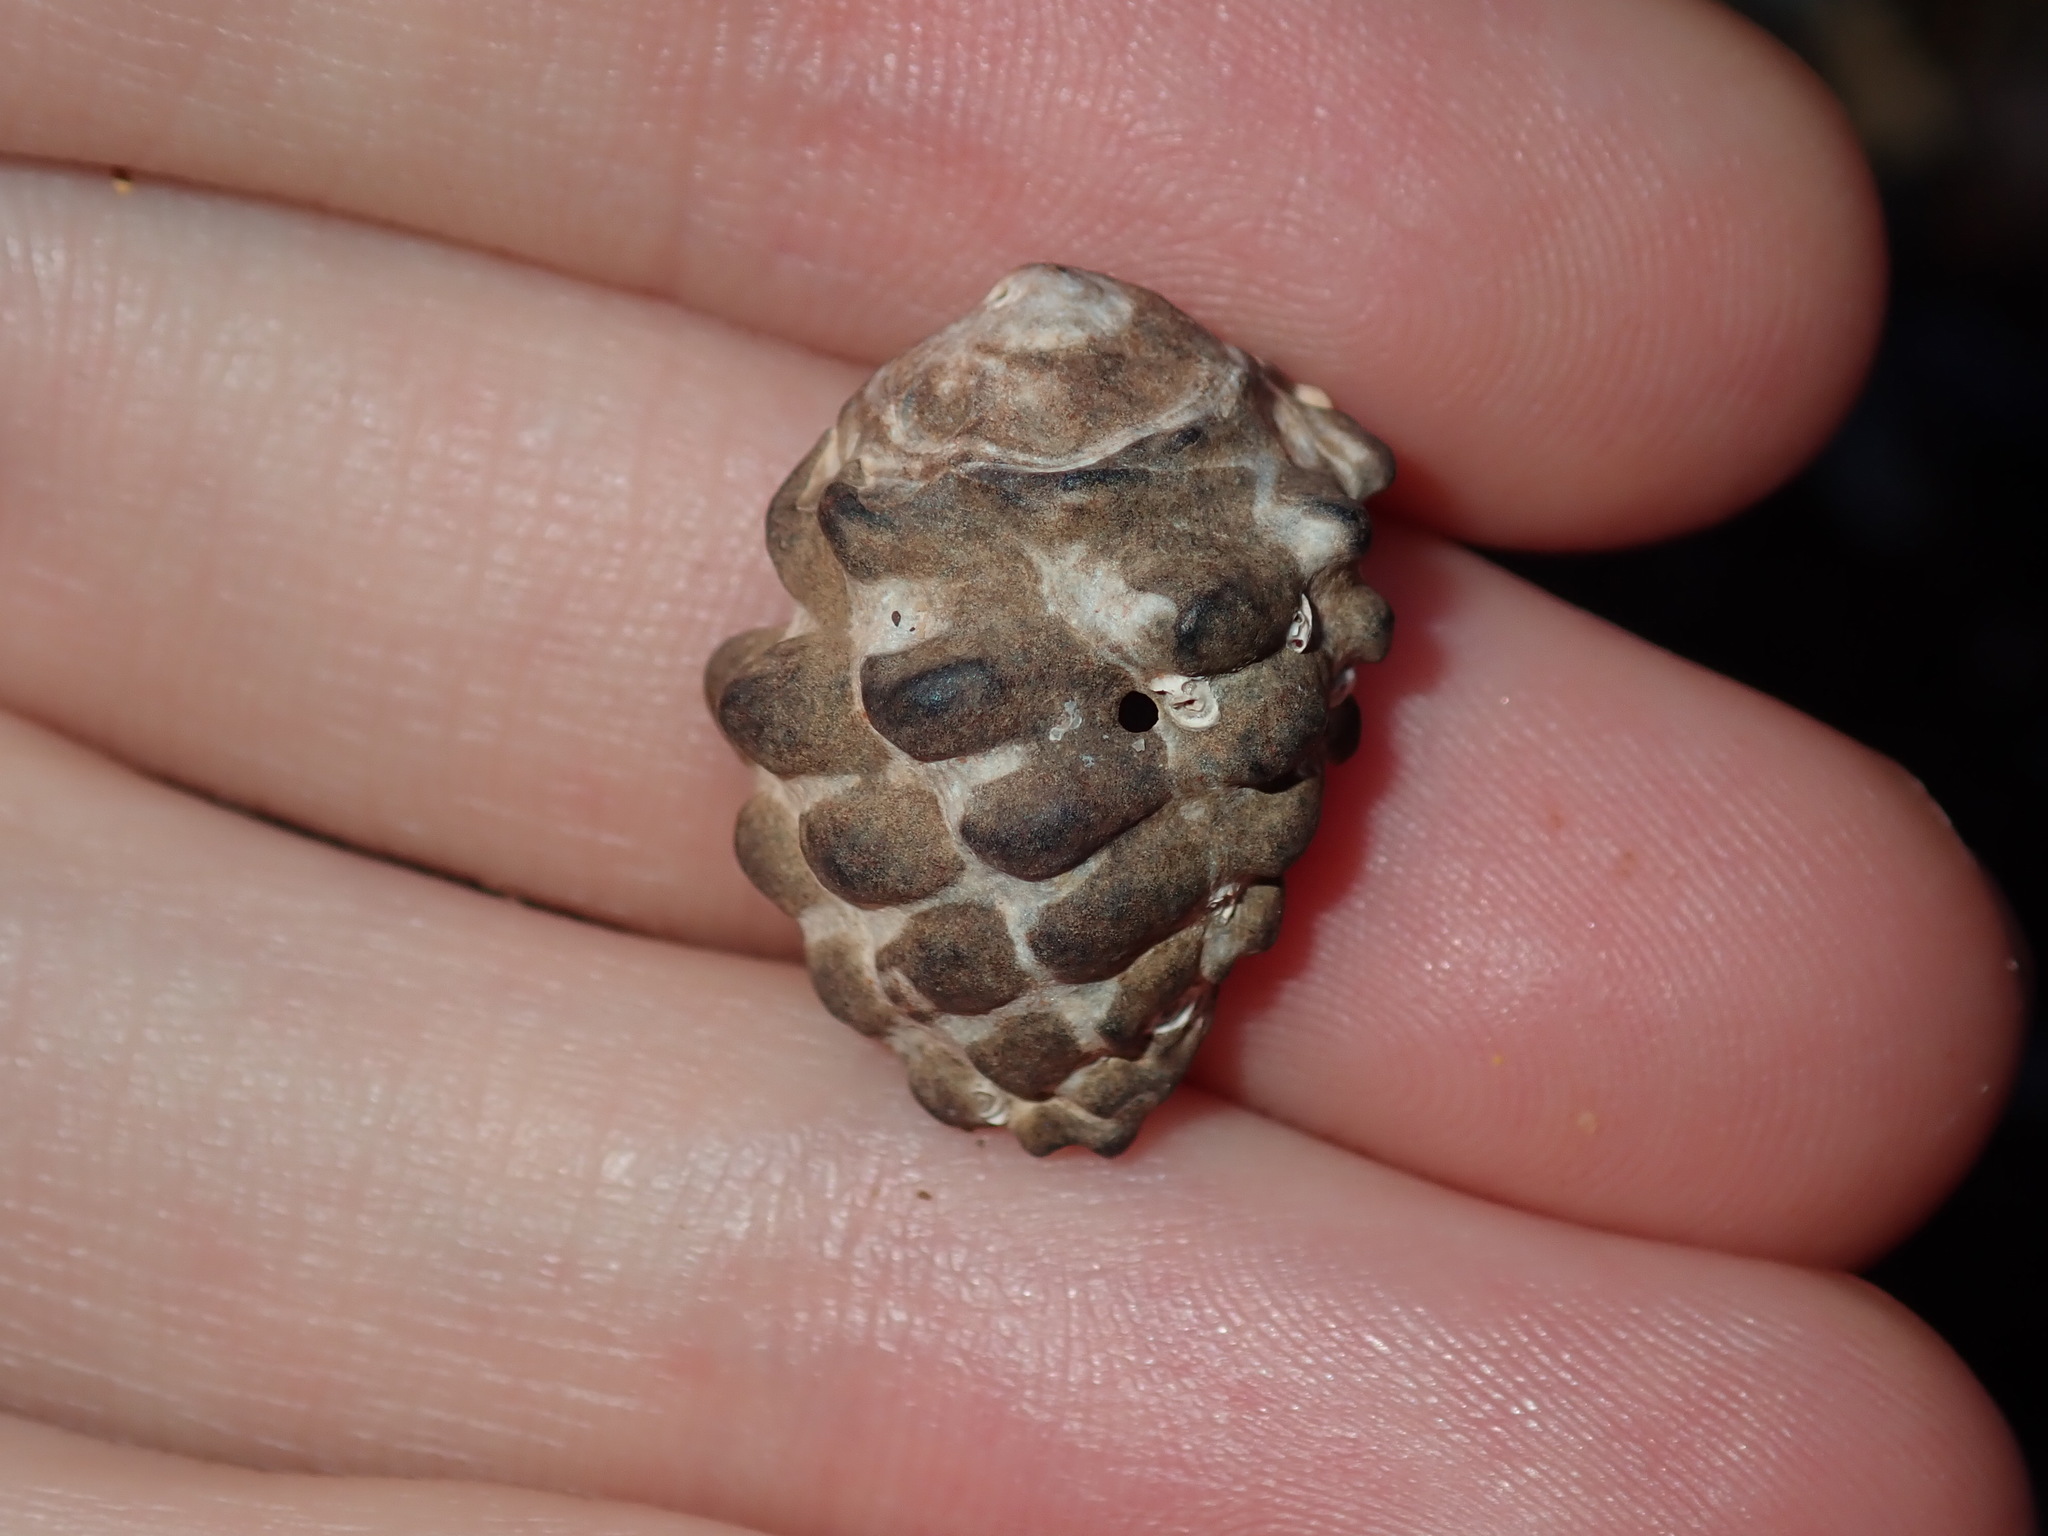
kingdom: Animalia
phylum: Mollusca
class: Gastropoda
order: Neogastropoda
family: Muricidae
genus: Tenguella
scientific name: Tenguella marginalba
